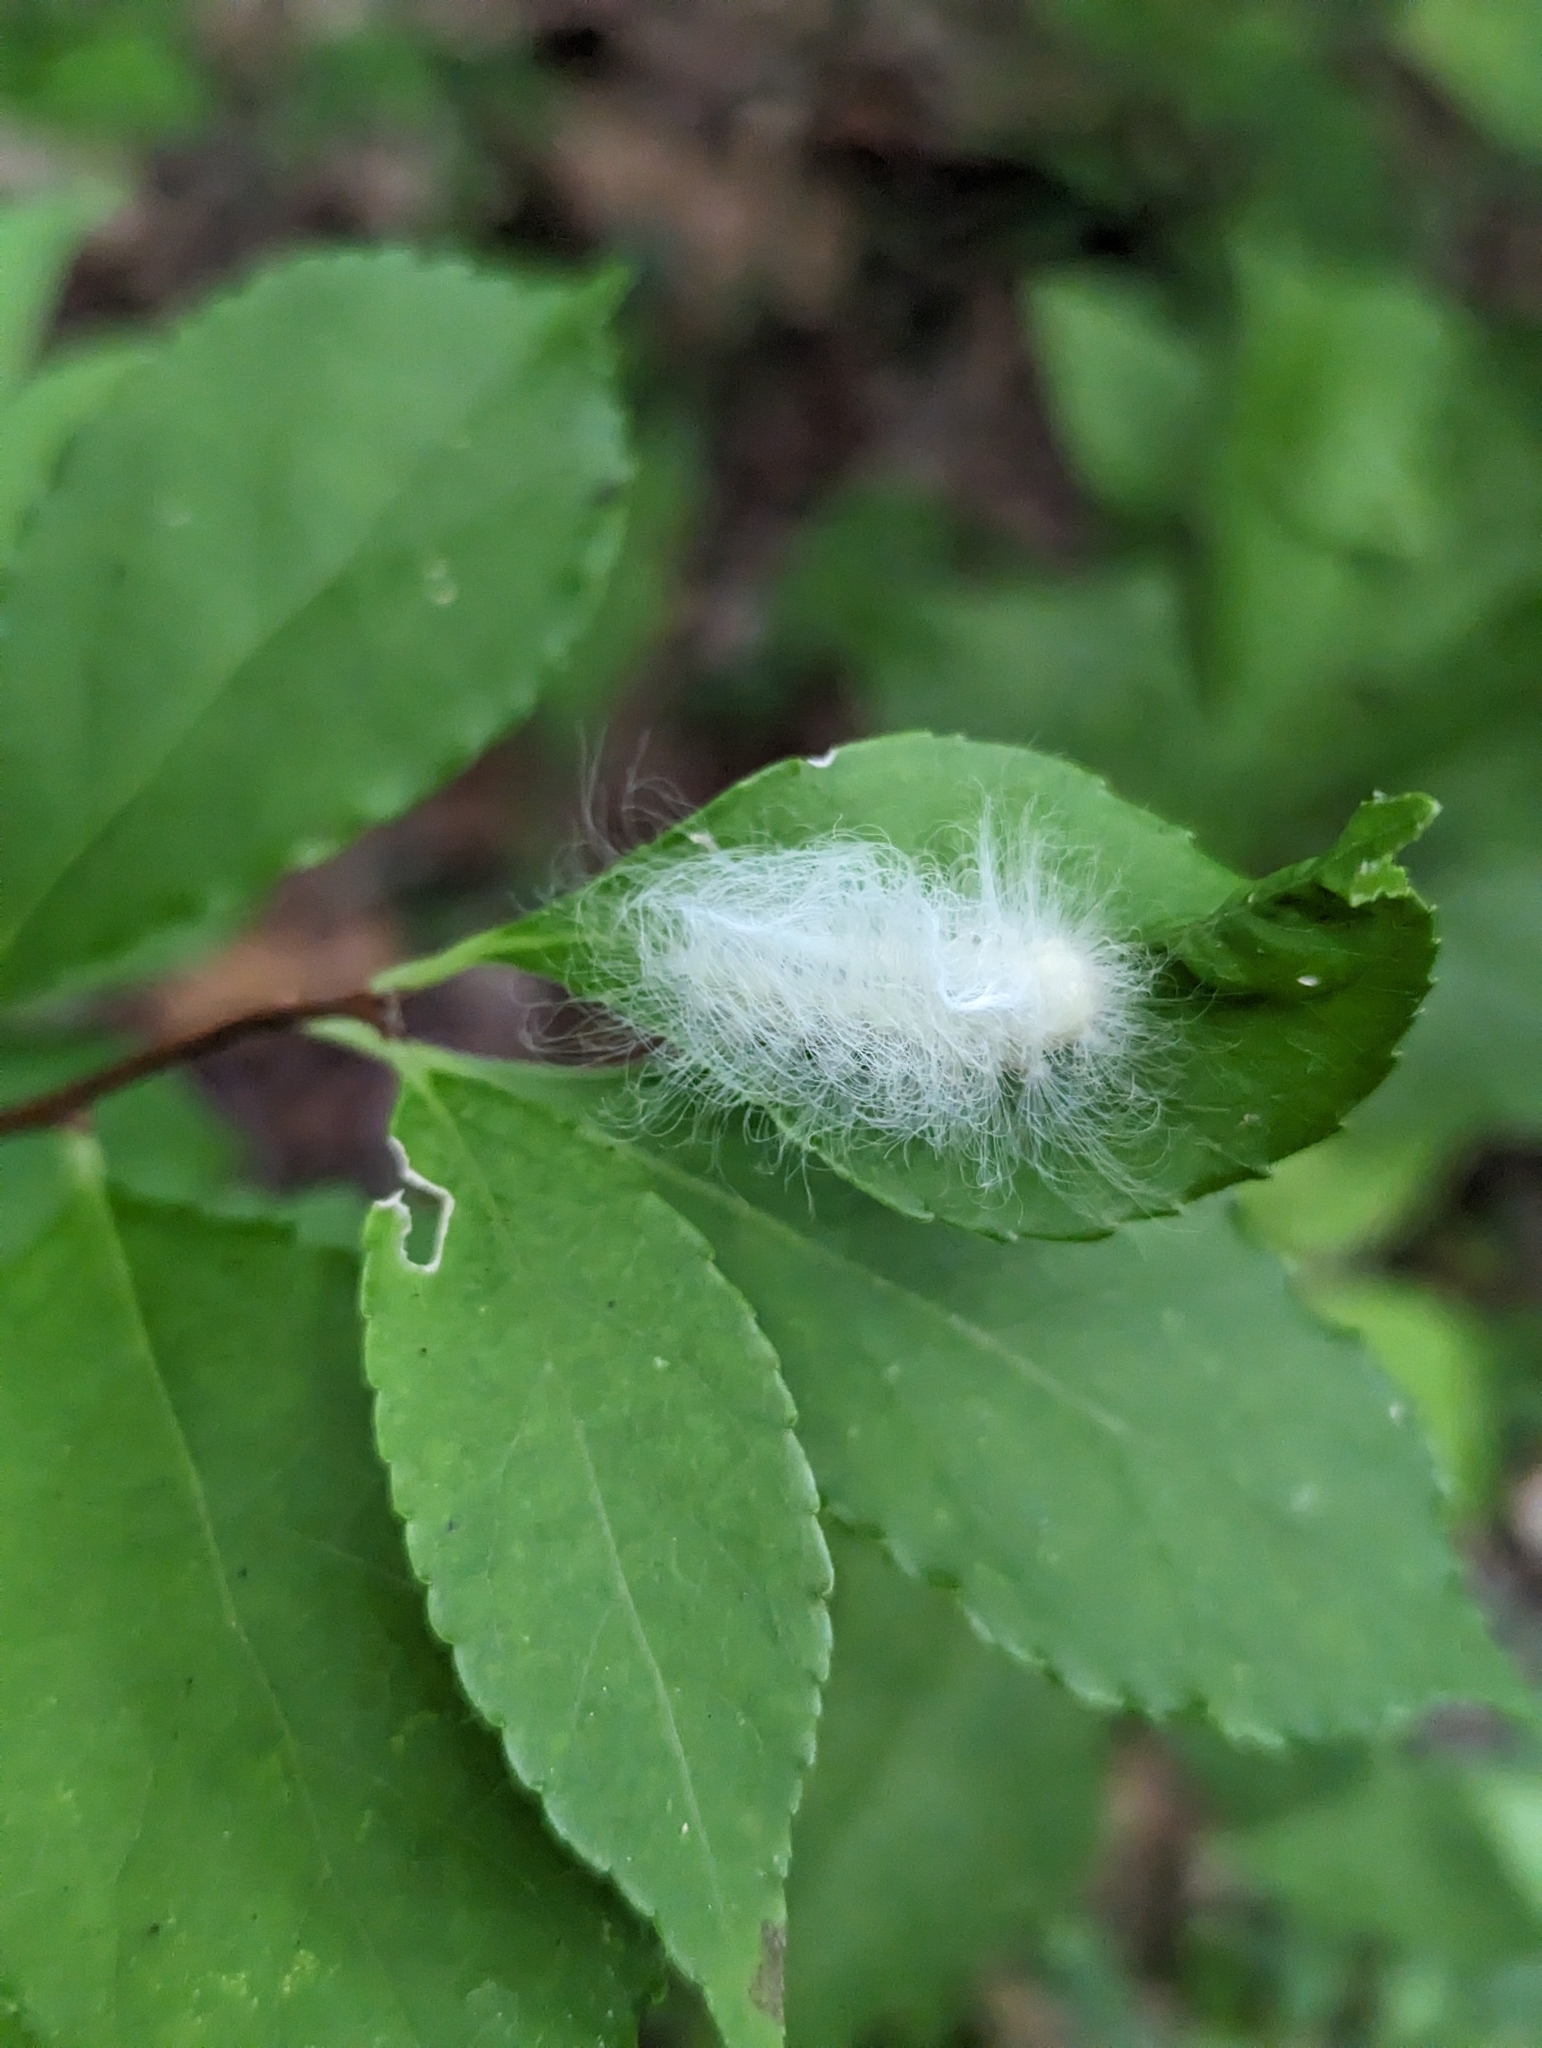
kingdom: Animalia
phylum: Arthropoda
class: Insecta
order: Lepidoptera
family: Megalopygidae
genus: Megalopyge
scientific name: Megalopyge crispata
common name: Black-waved flannel moth
